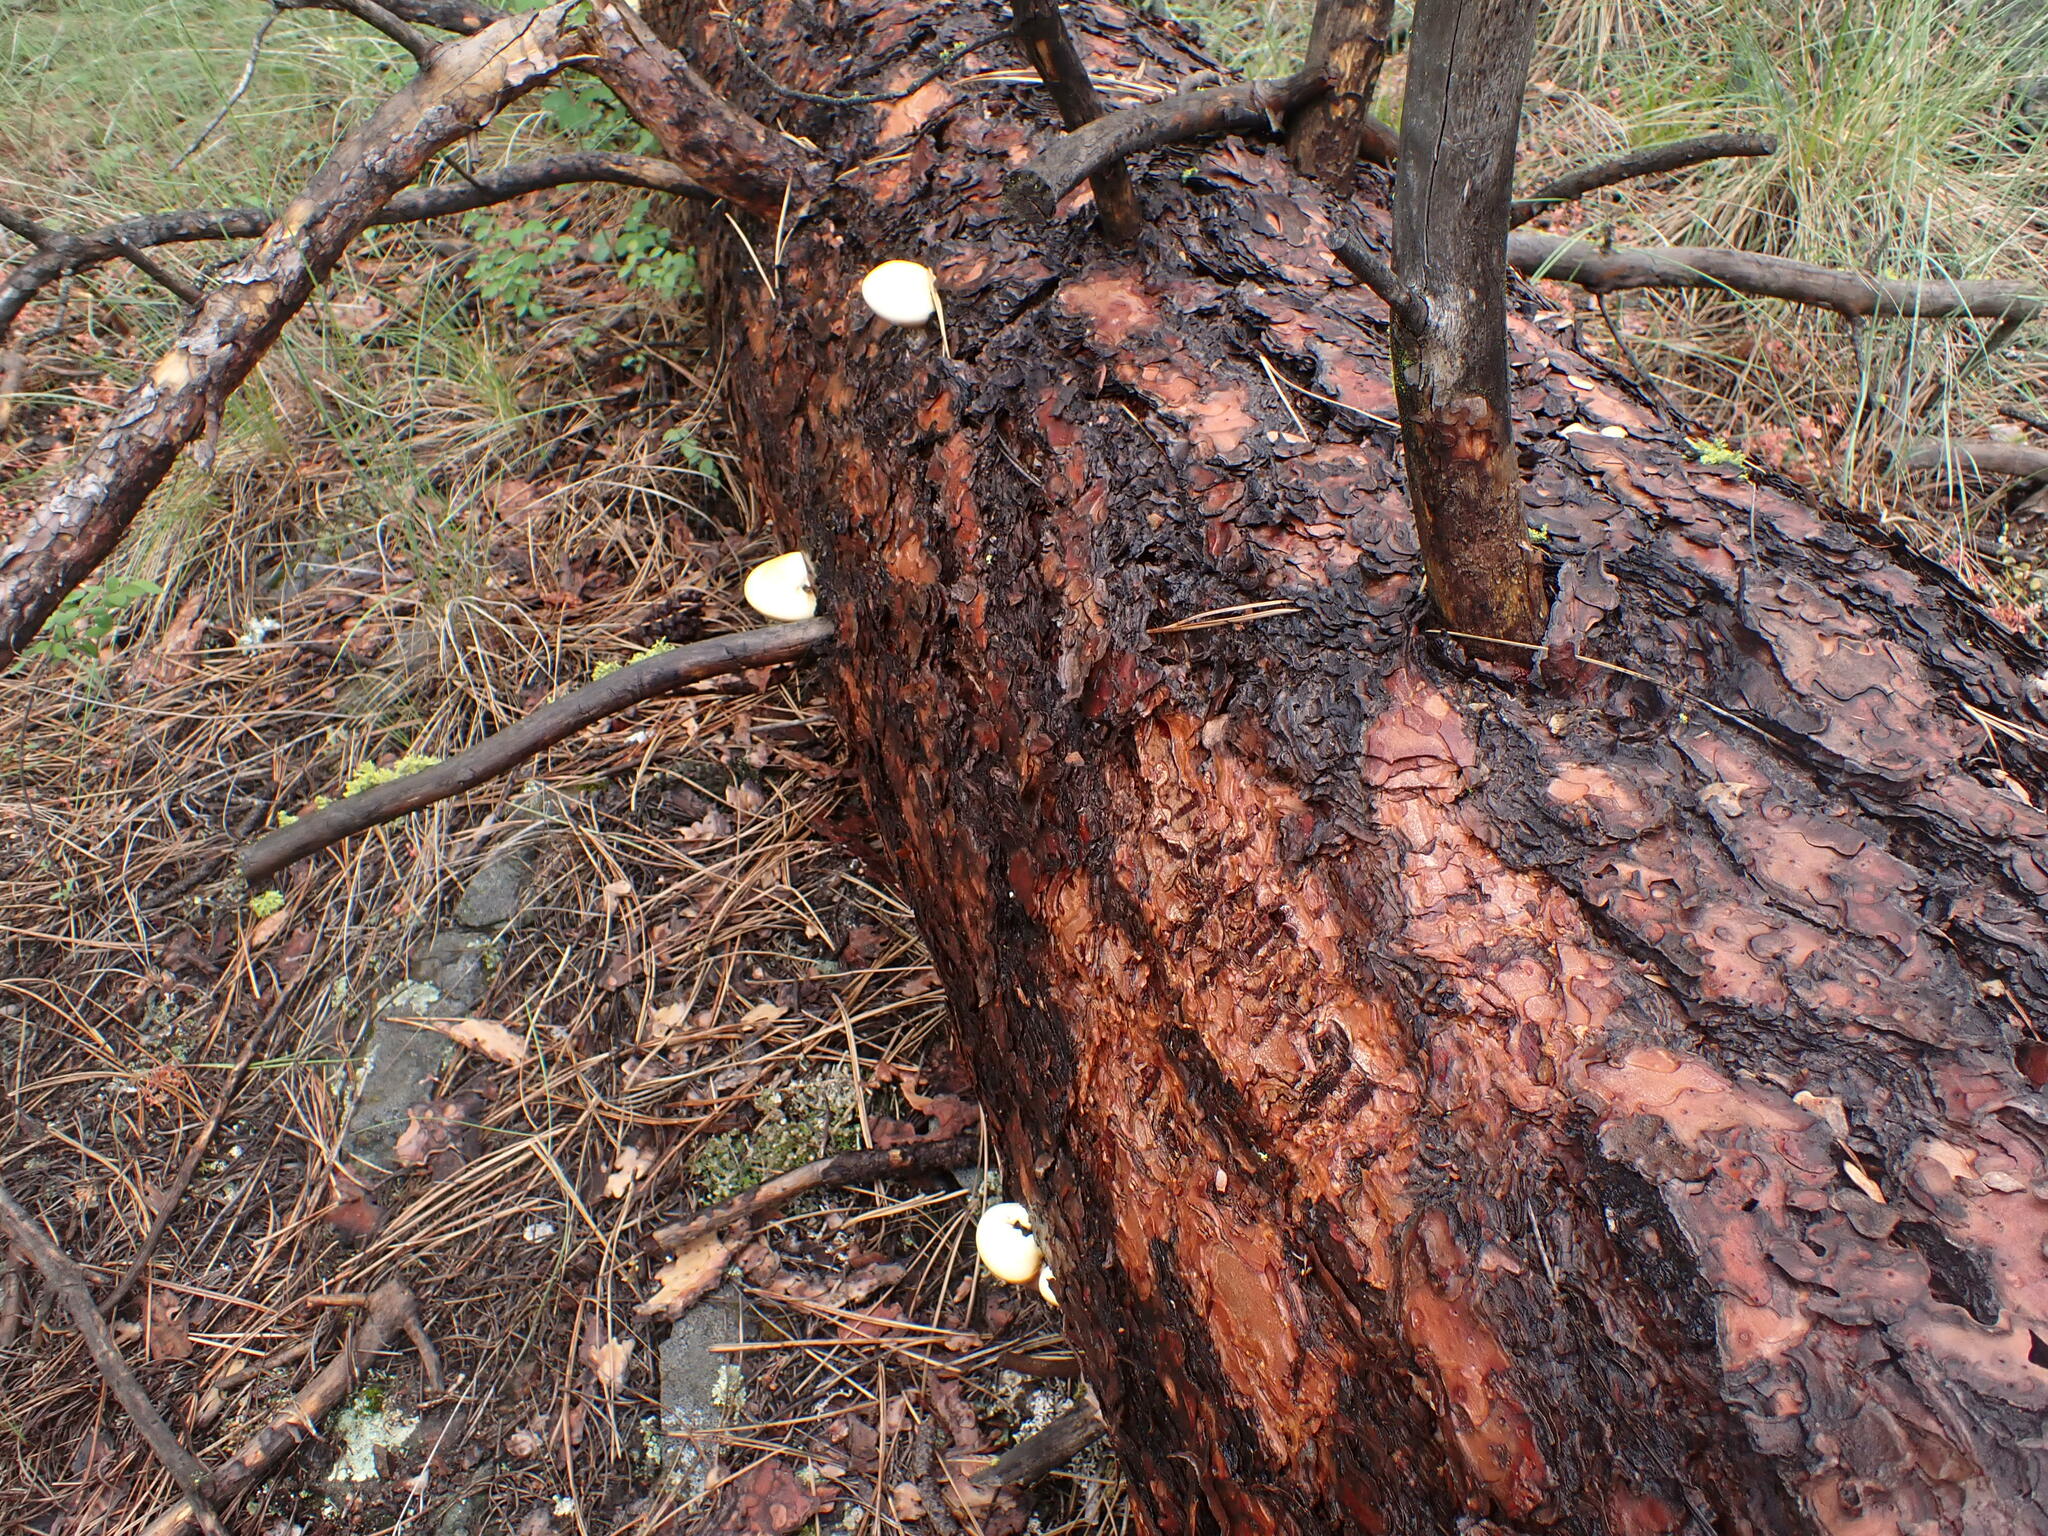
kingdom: Fungi
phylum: Basidiomycota
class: Agaricomycetes
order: Polyporales
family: Polyporaceae
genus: Cryptoporus
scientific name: Cryptoporus volvatus
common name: Veiled polypore
